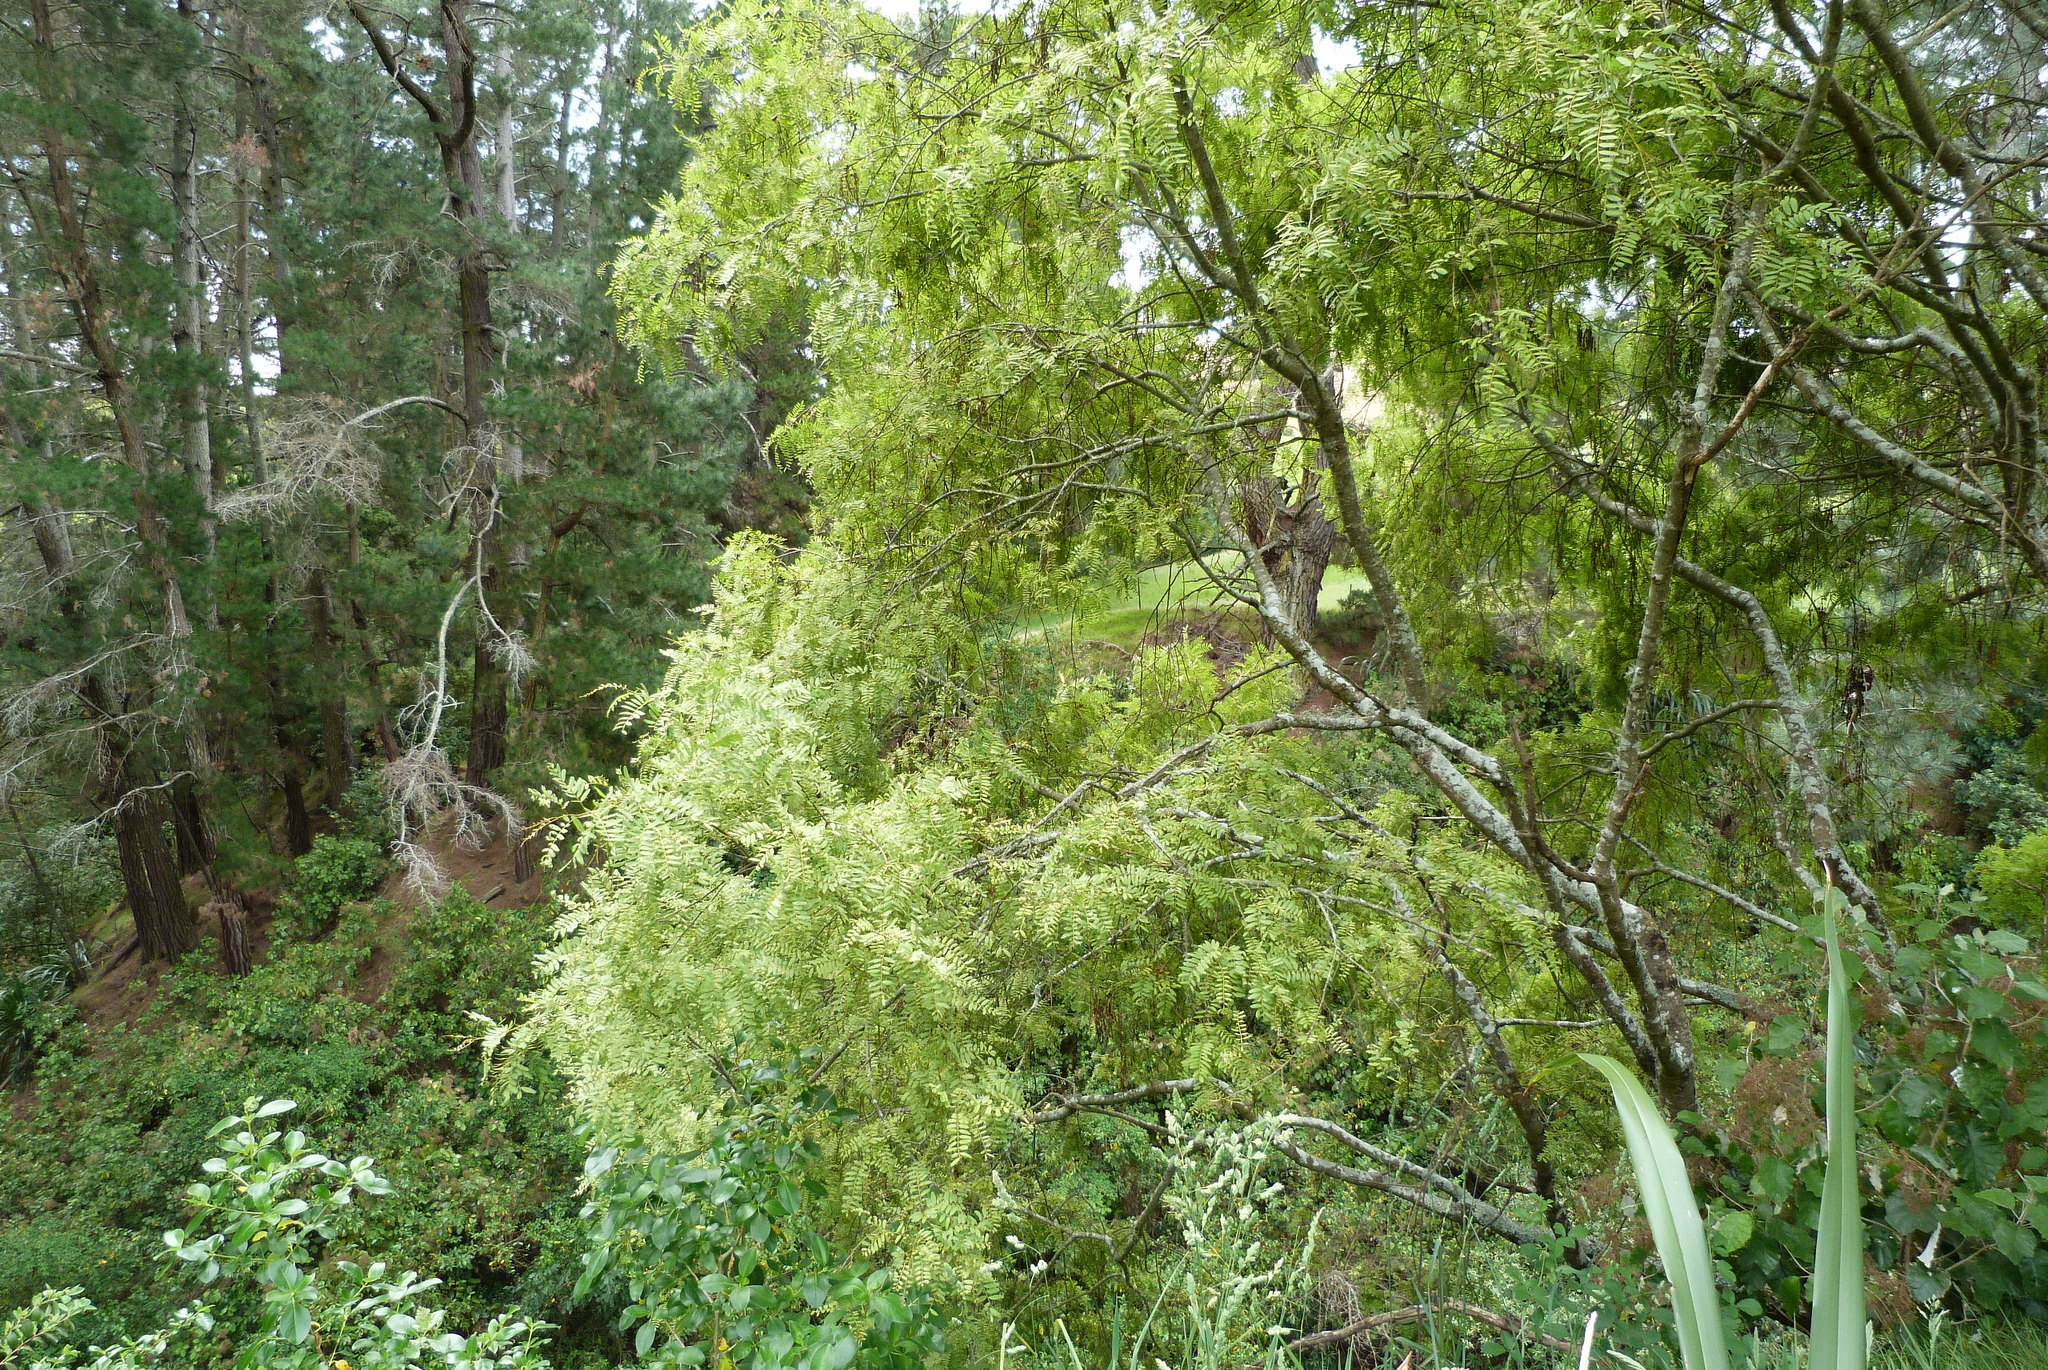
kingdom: Plantae
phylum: Tracheophyta
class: Magnoliopsida
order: Fabales
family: Fabaceae
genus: Sophora
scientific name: Sophora tetraptera
